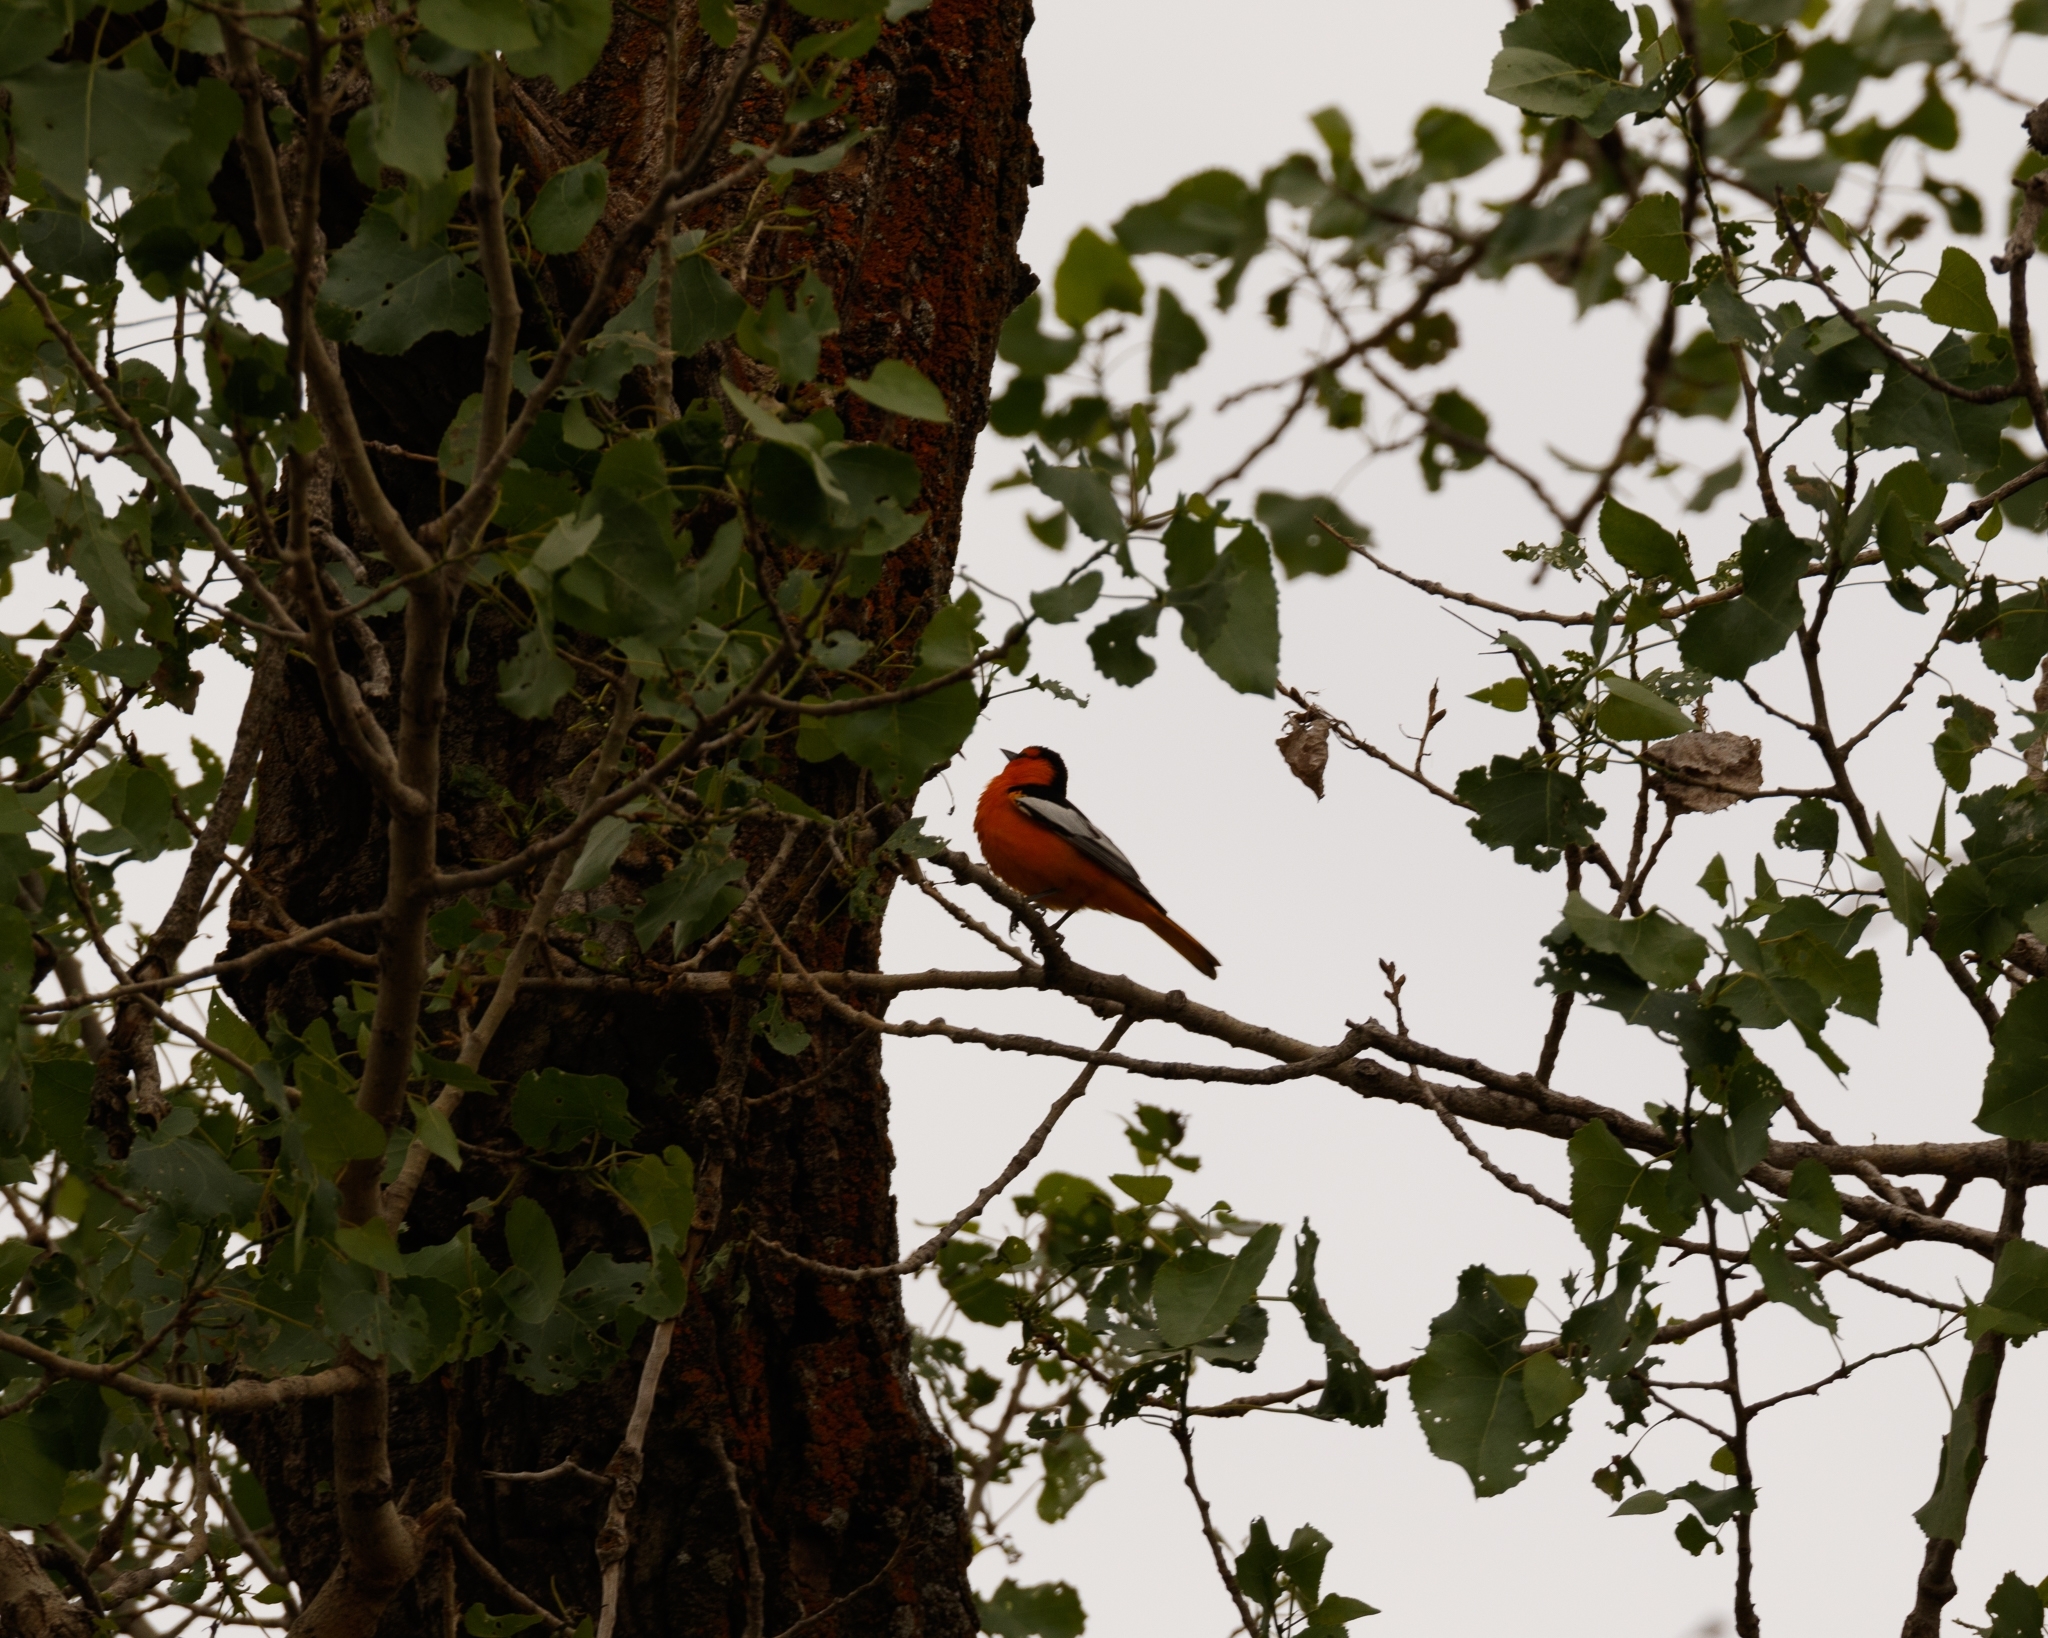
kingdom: Animalia
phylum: Chordata
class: Aves
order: Passeriformes
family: Icteridae
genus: Icterus
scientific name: Icterus bullockii
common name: Bullock's oriole
